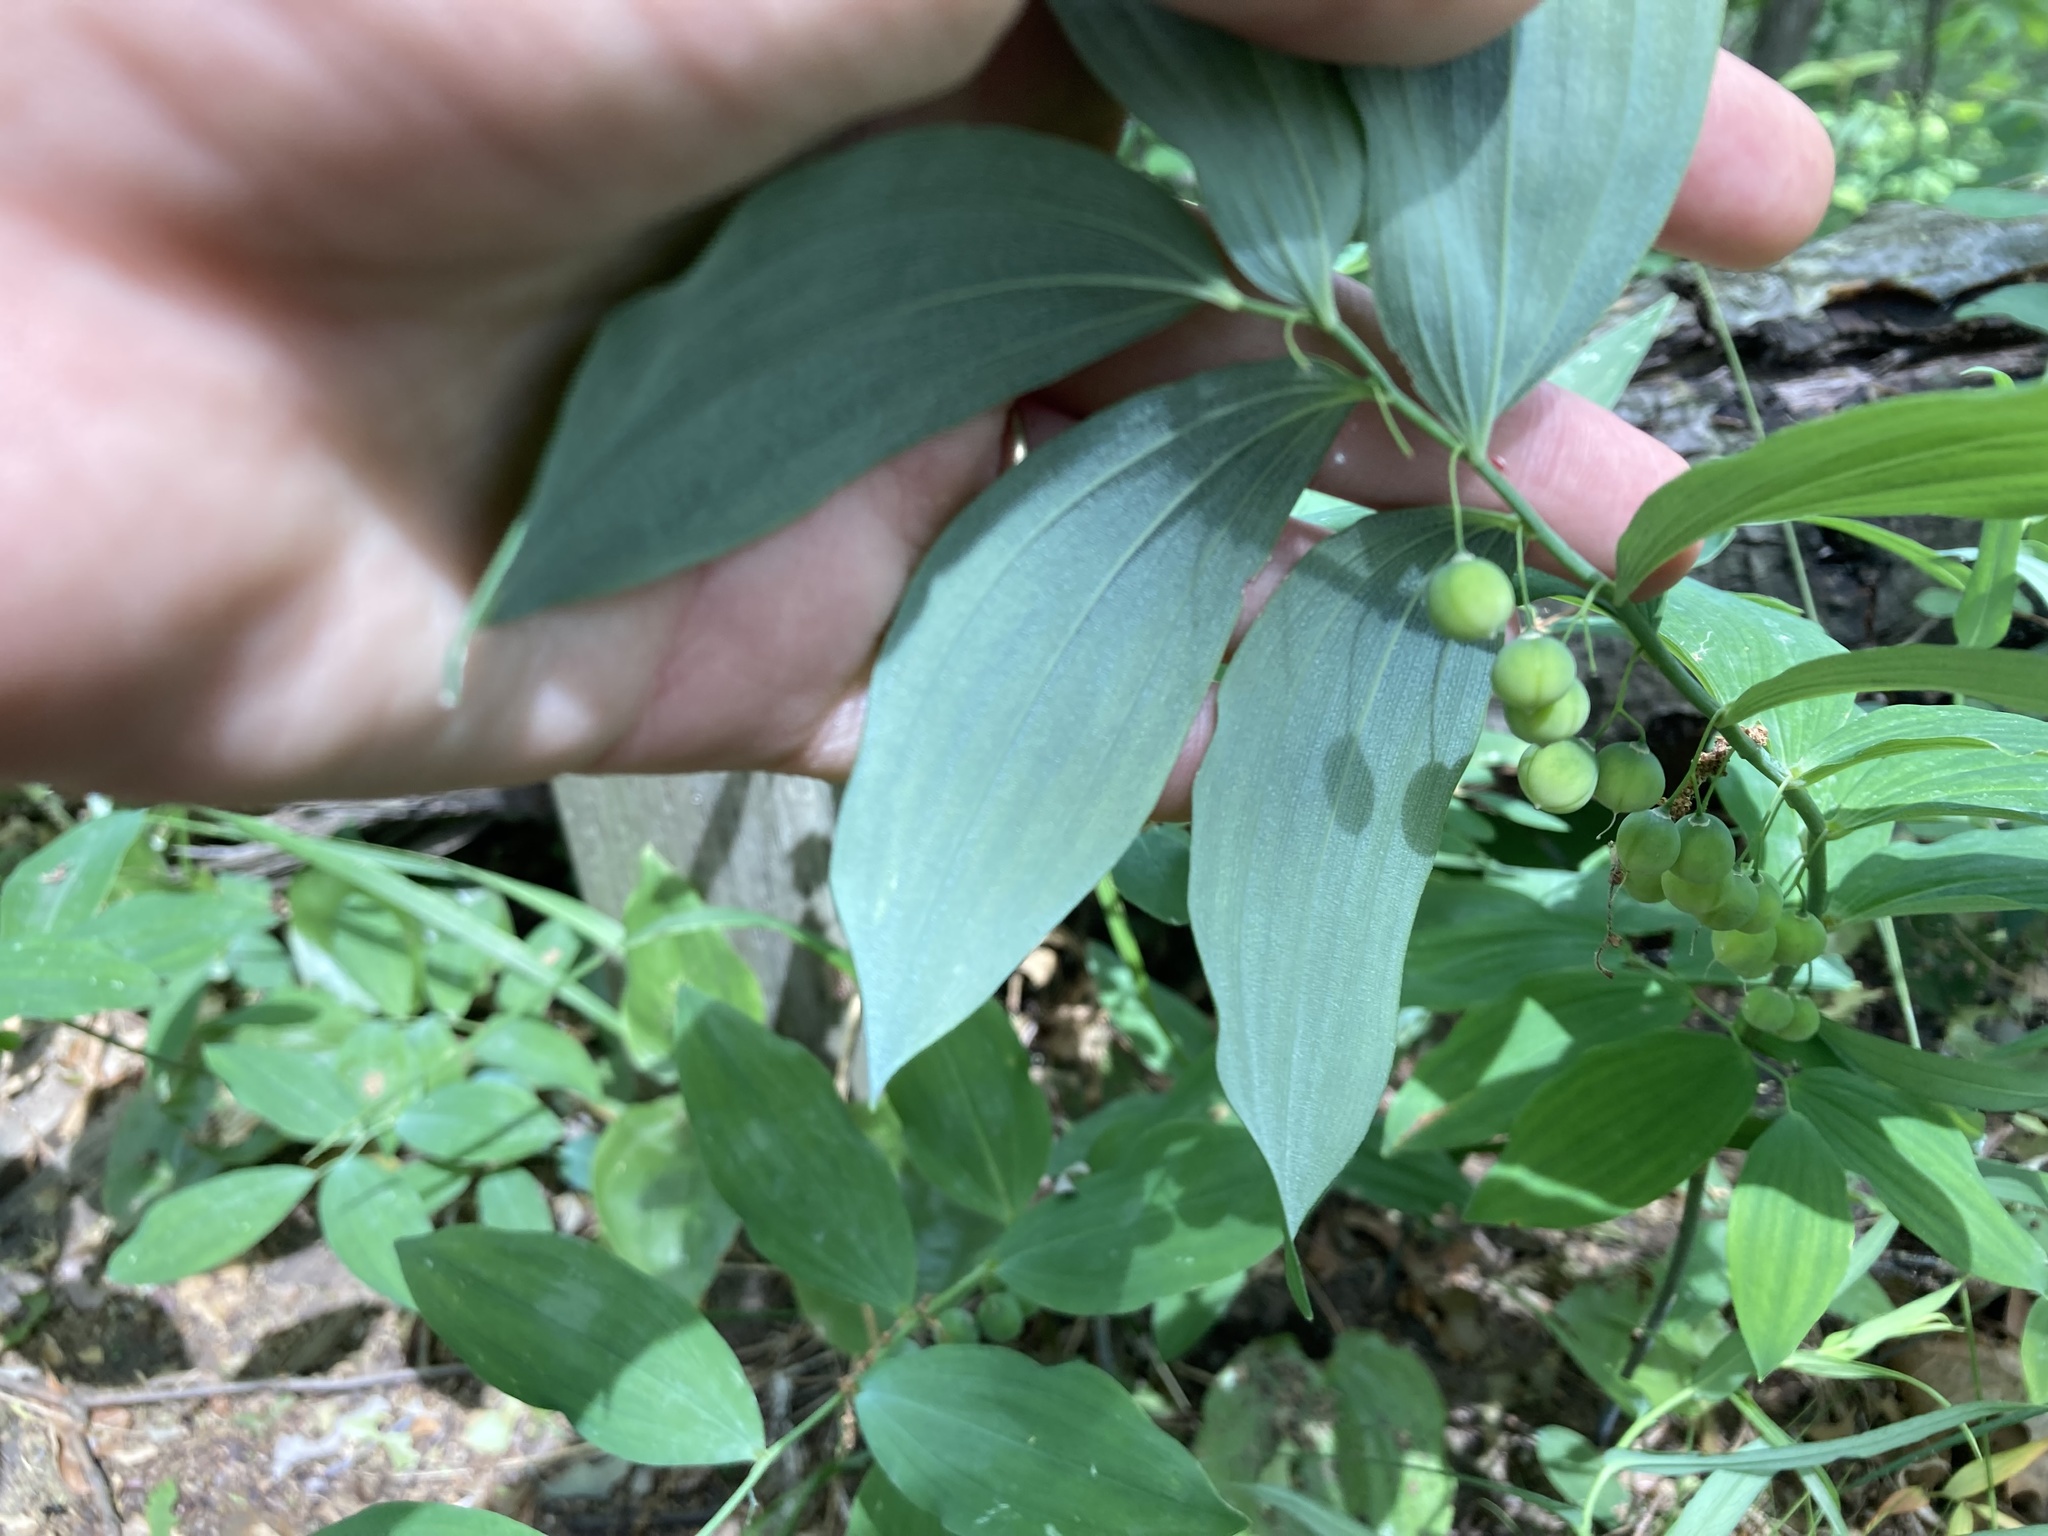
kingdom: Plantae
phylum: Tracheophyta
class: Liliopsida
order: Asparagales
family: Asparagaceae
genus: Polygonatum
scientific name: Polygonatum pubescens
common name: Downy solomon's seal
